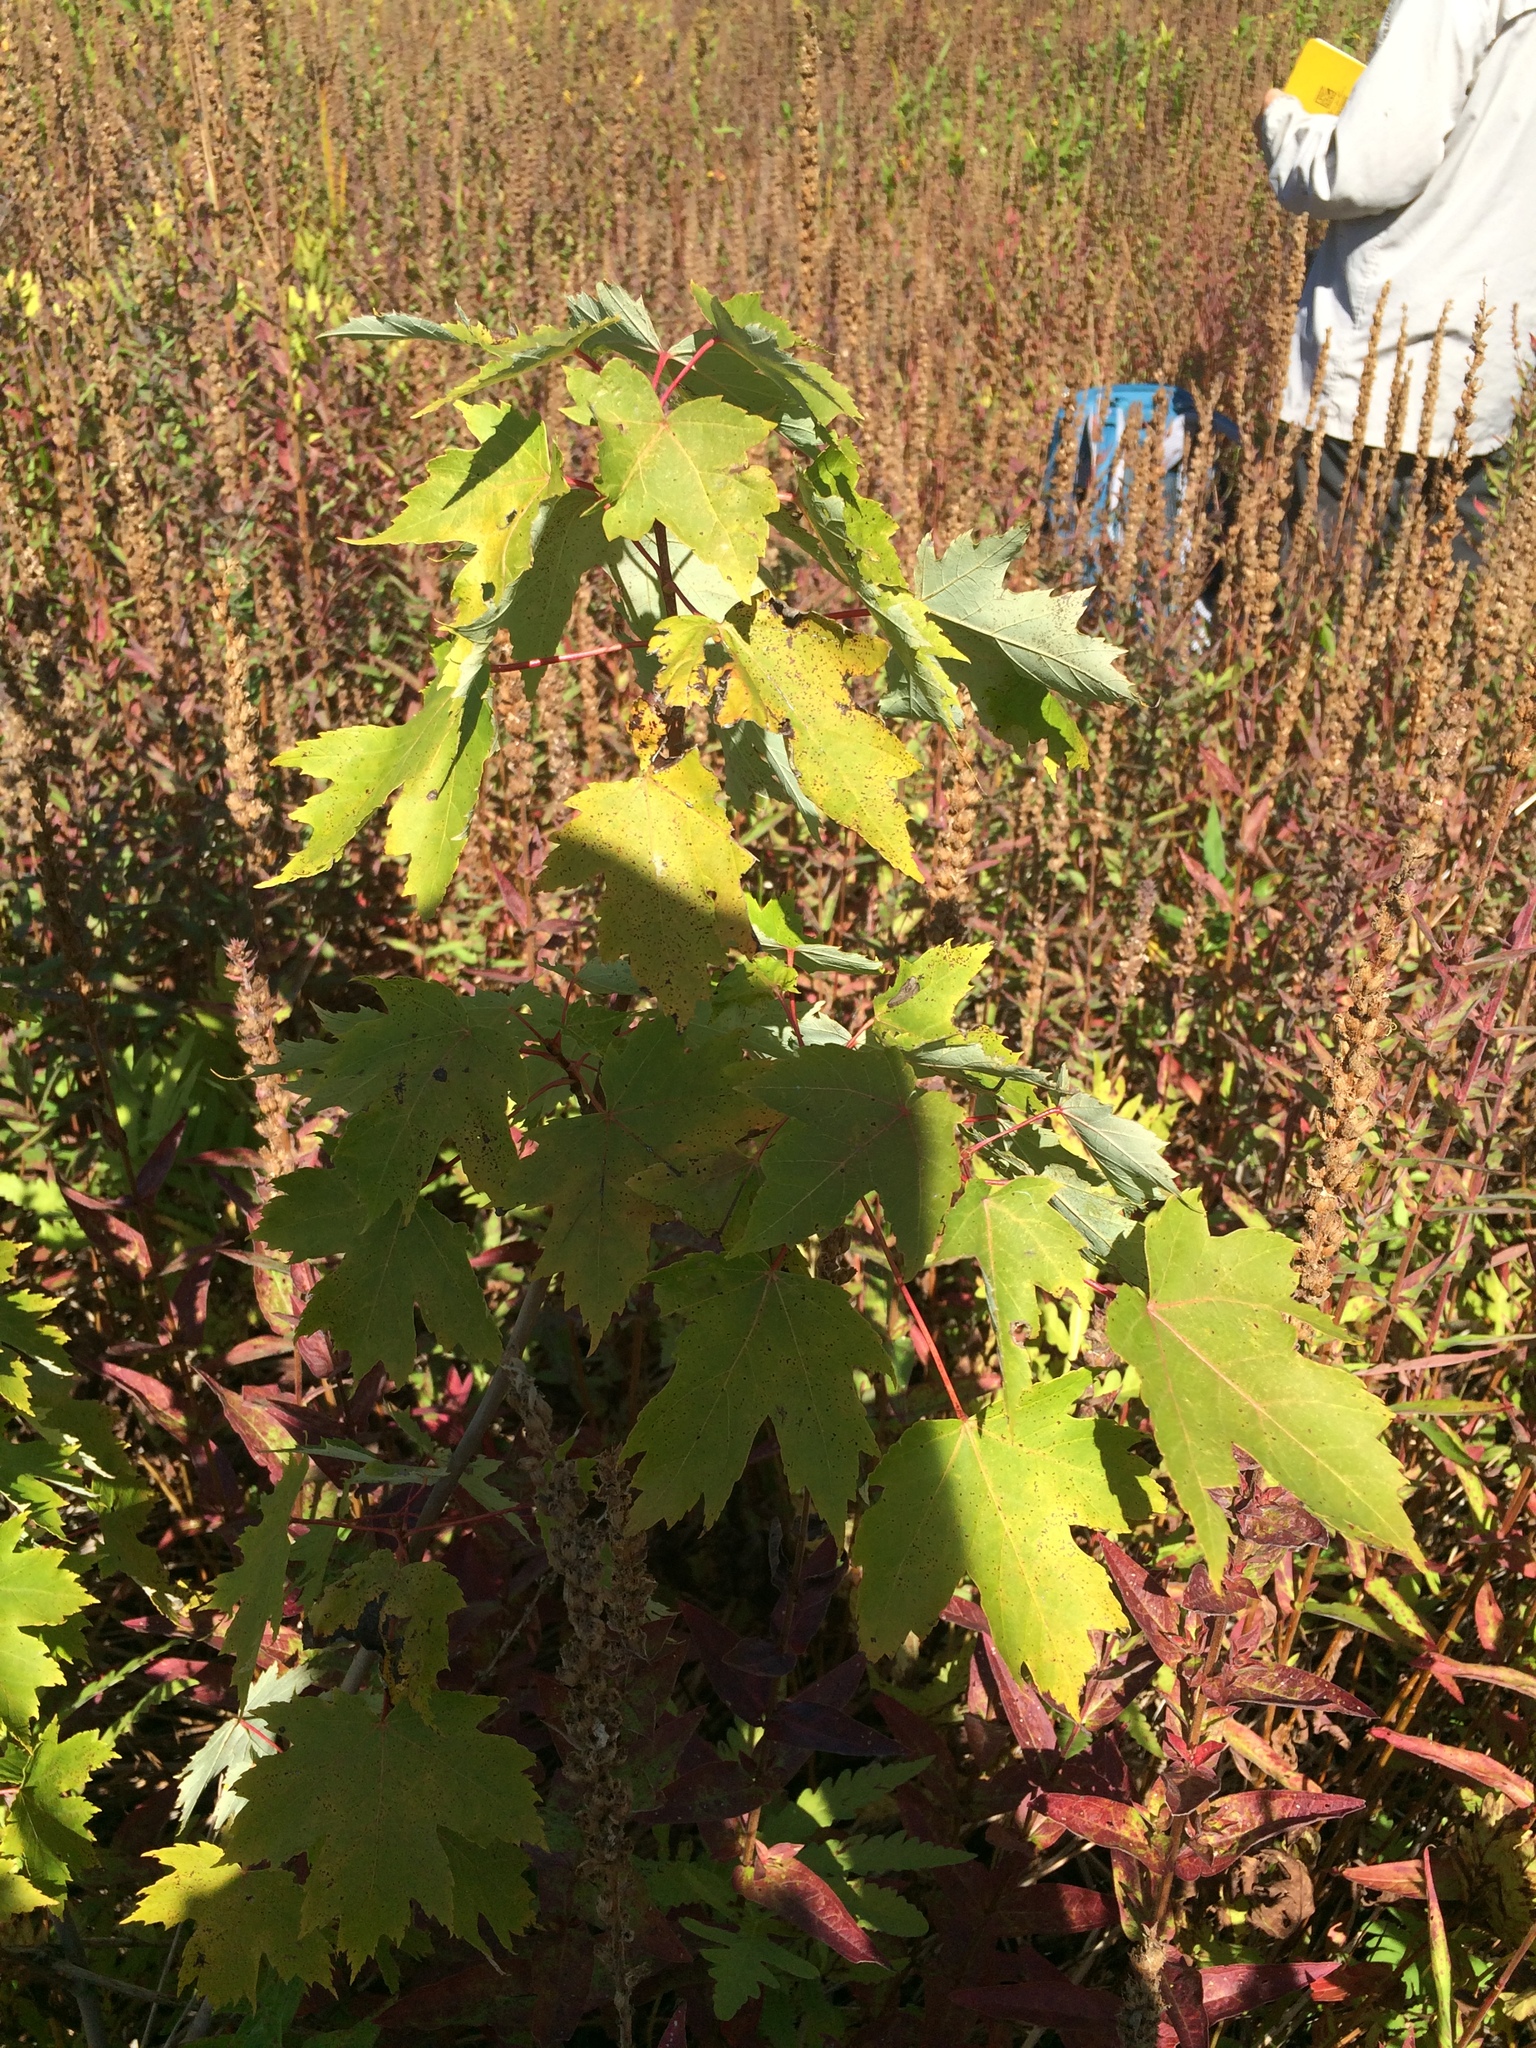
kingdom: Plantae
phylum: Tracheophyta
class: Magnoliopsida
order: Sapindales
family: Sapindaceae
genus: Acer
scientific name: Acer freemanii
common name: Freeman maple
